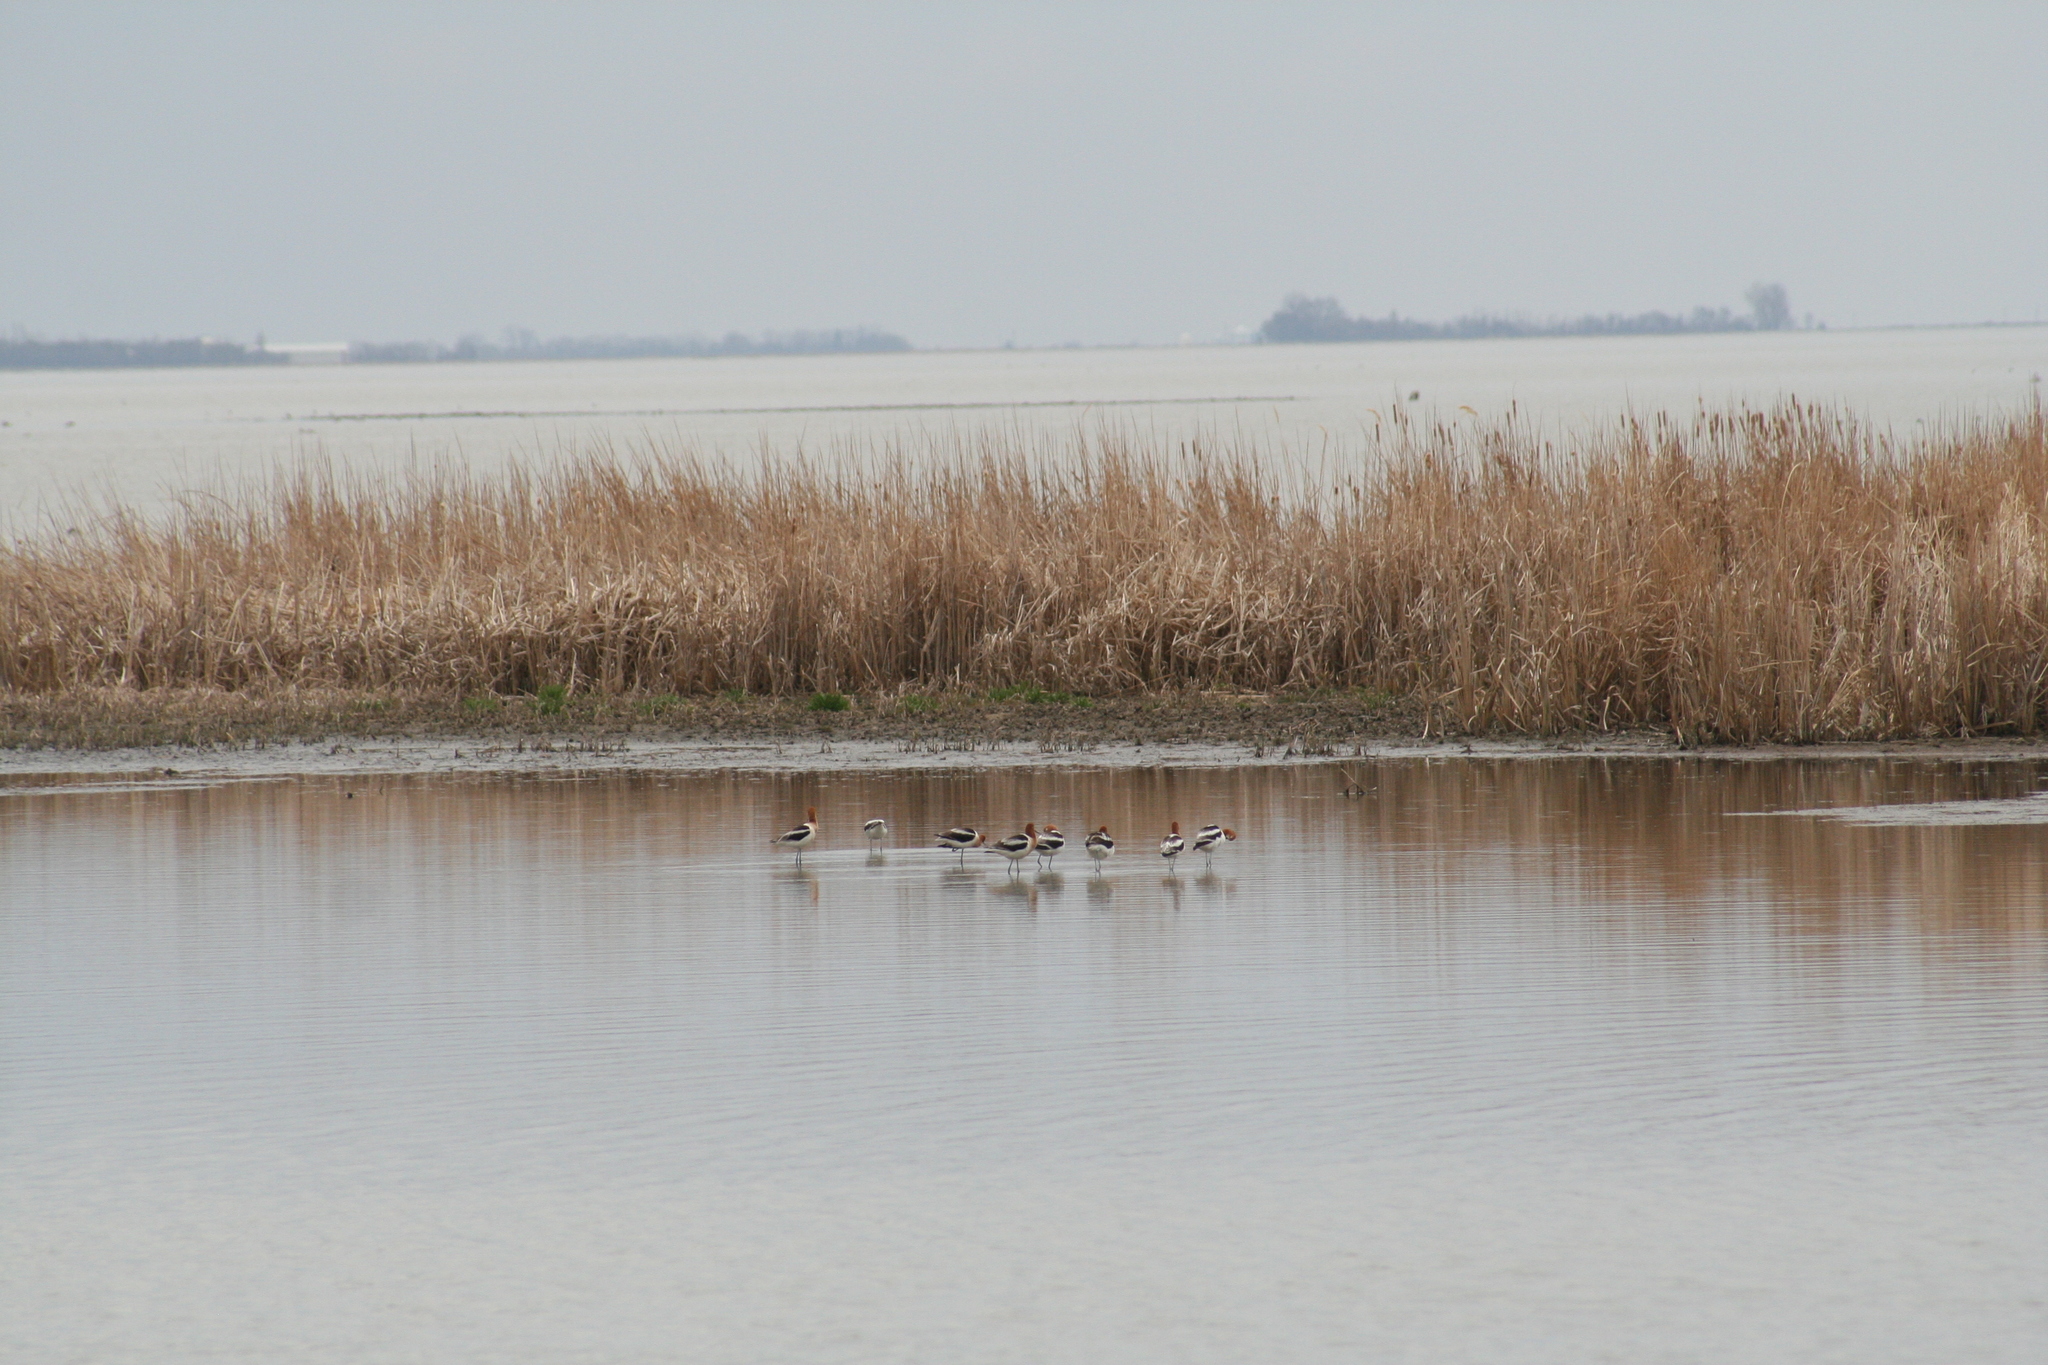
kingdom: Animalia
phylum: Chordata
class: Aves
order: Charadriiformes
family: Recurvirostridae
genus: Recurvirostra
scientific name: Recurvirostra americana
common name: American avocet
